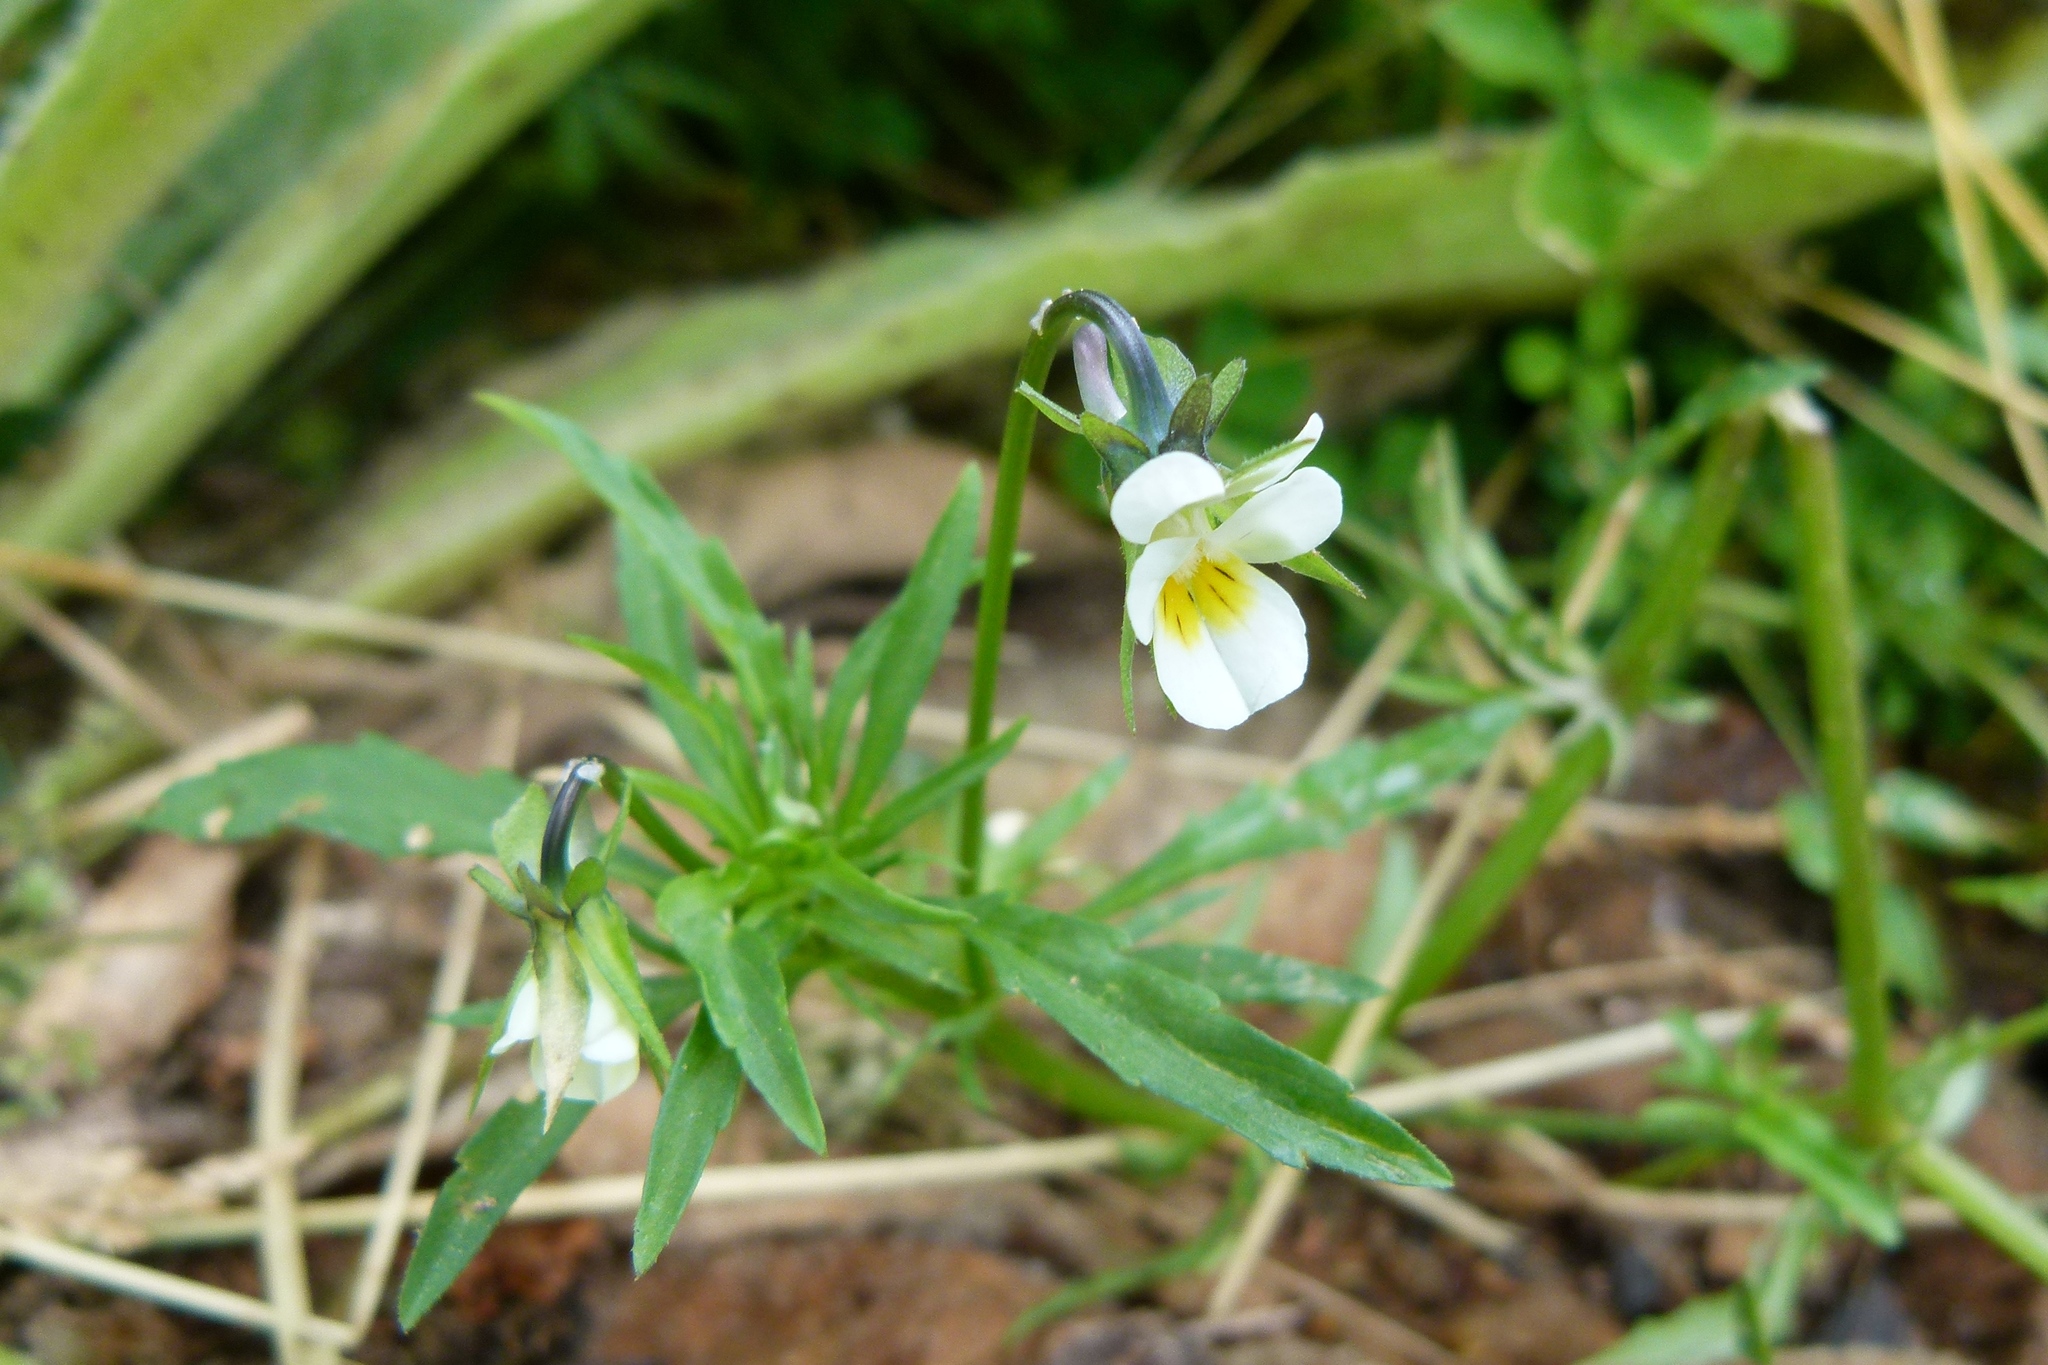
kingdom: Plantae
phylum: Tracheophyta
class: Magnoliopsida
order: Malpighiales
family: Violaceae
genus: Viola
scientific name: Viola arvensis
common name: Field pansy
